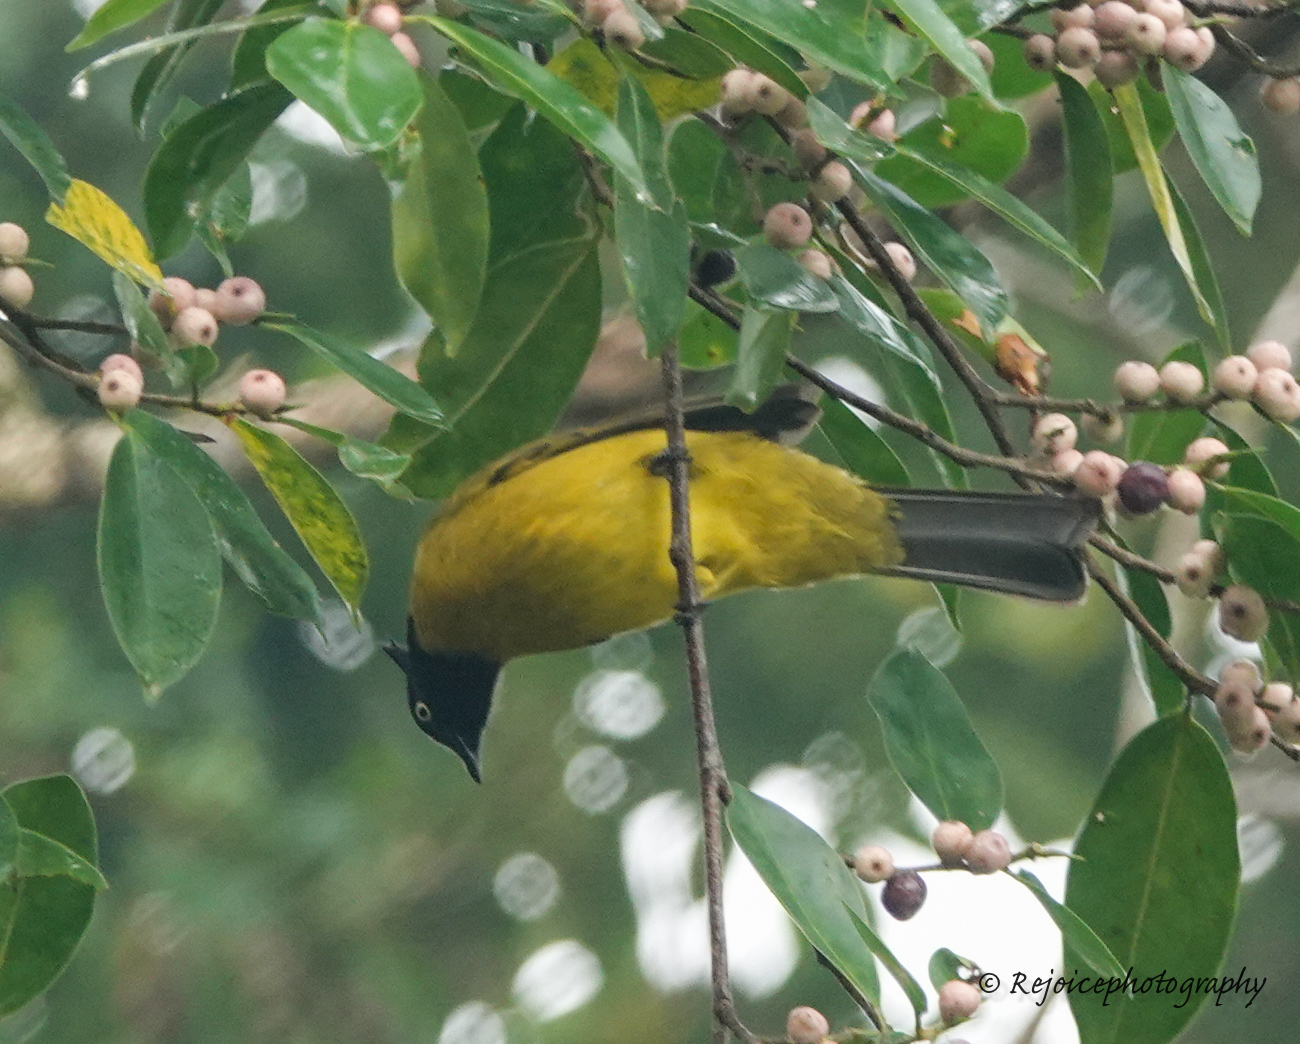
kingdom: Animalia
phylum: Chordata
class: Aves
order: Passeriformes
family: Pycnonotidae
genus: Pycnonotus
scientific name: Pycnonotus flaviventris
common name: Black-crested bulbul
